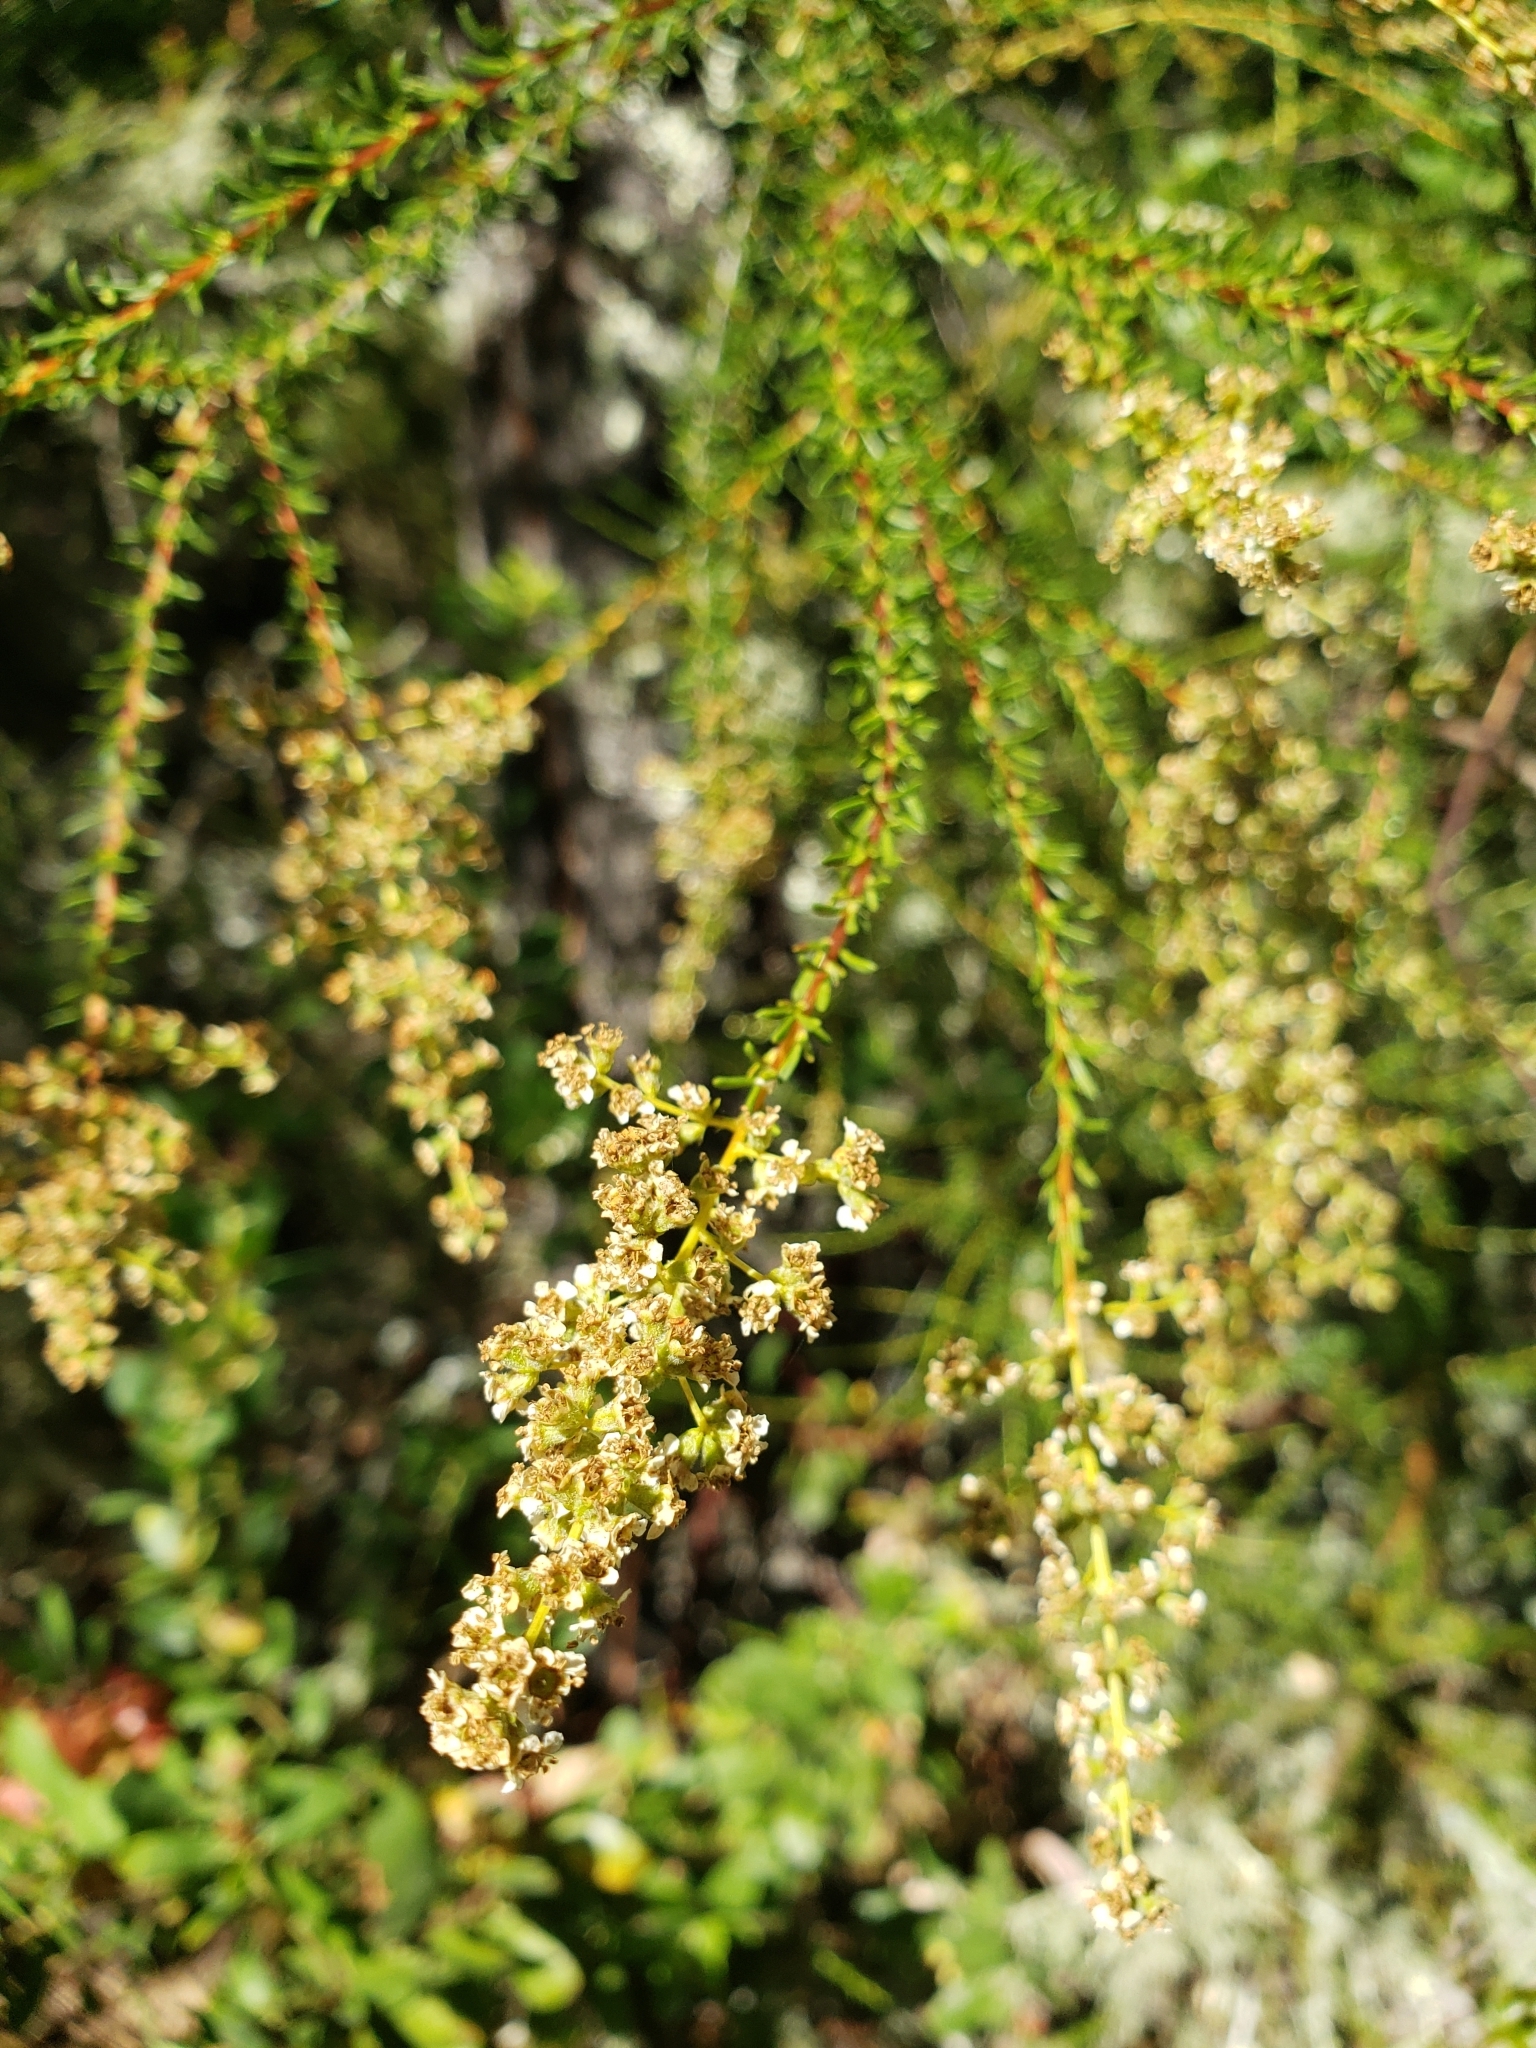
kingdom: Plantae
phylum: Tracheophyta
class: Magnoliopsida
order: Rosales
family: Rosaceae
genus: Adenostoma
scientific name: Adenostoma fasciculatum
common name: Chamise
